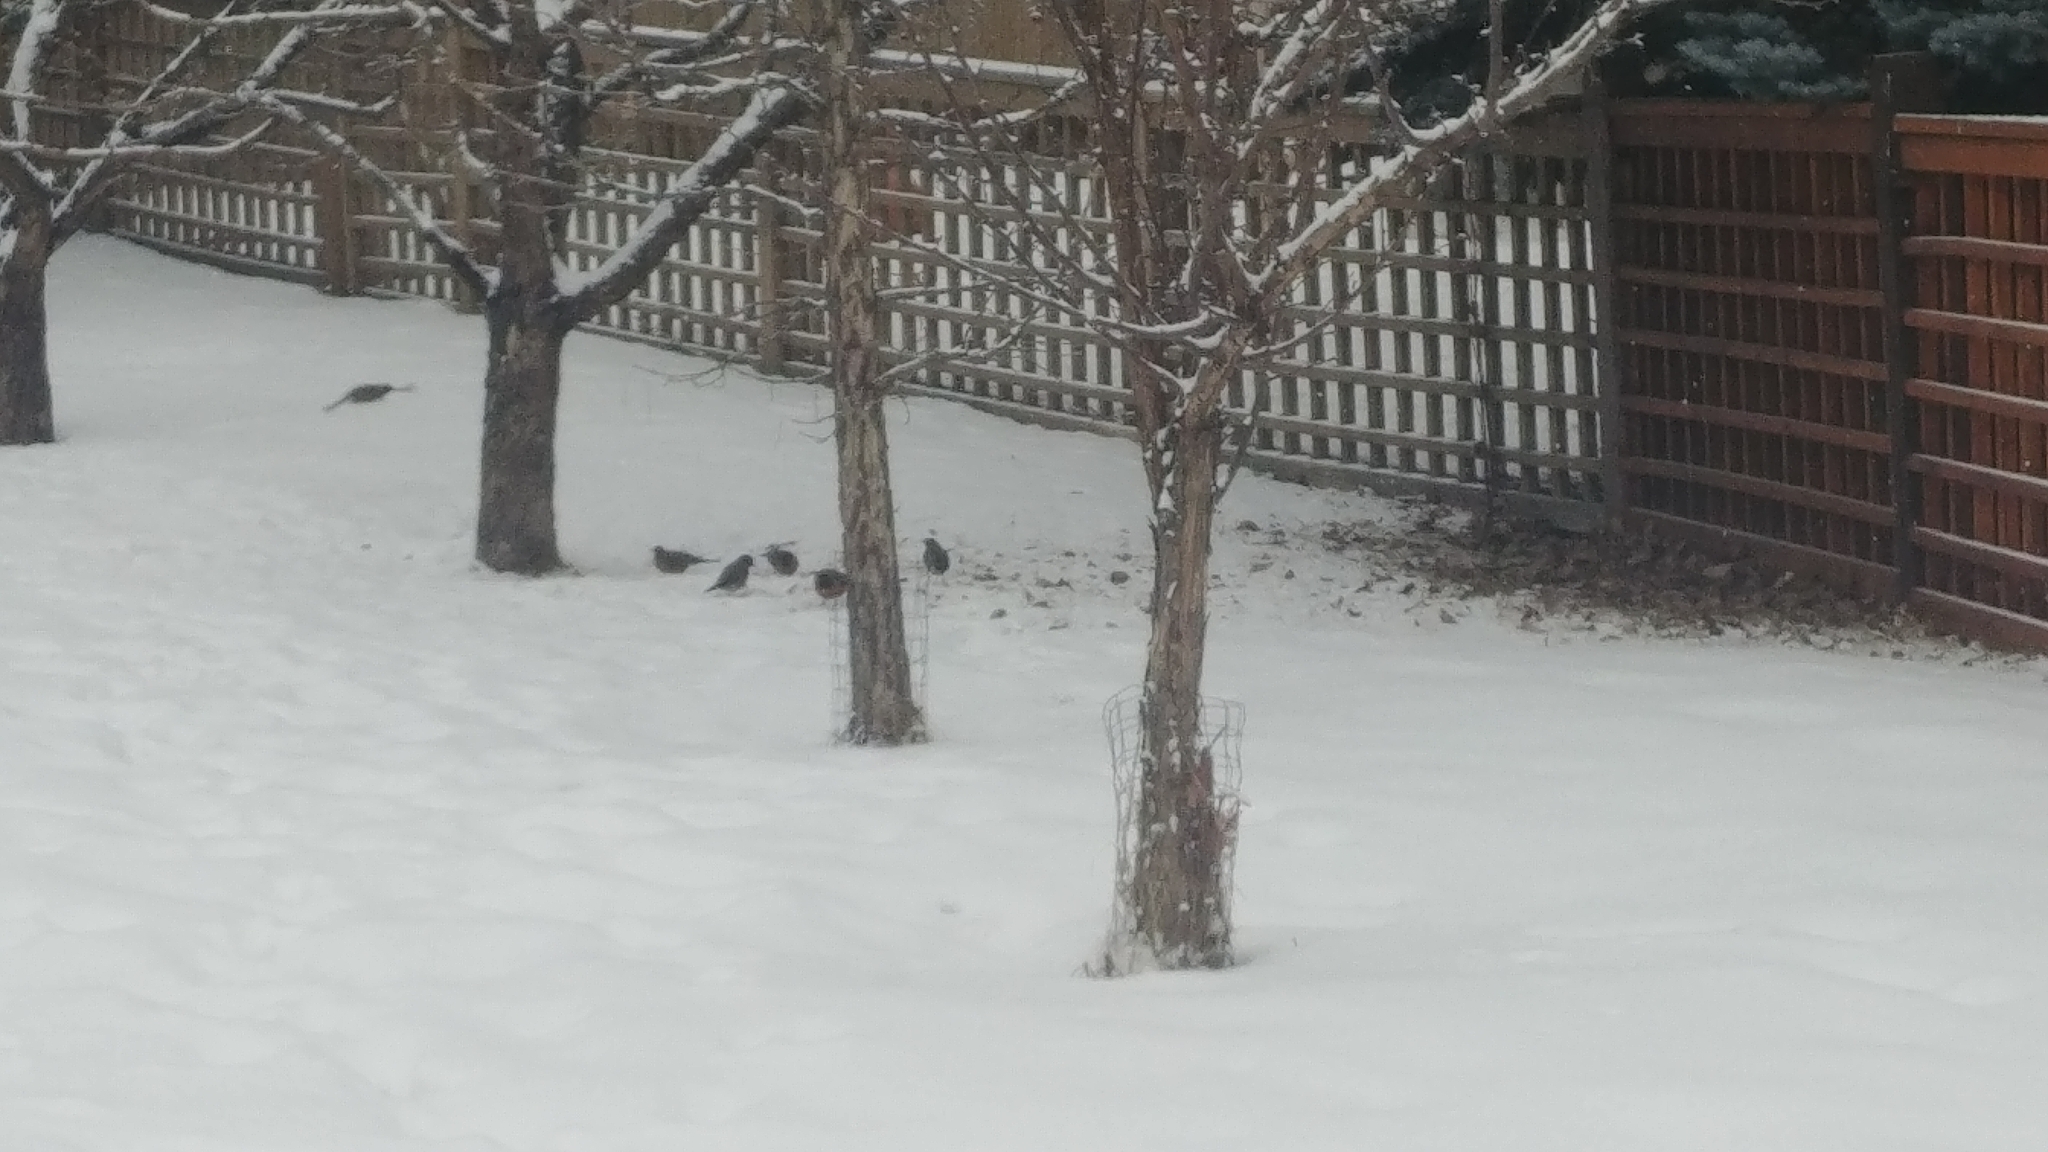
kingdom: Animalia
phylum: Chordata
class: Aves
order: Passeriformes
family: Turdidae
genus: Turdus
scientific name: Turdus migratorius
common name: American robin
